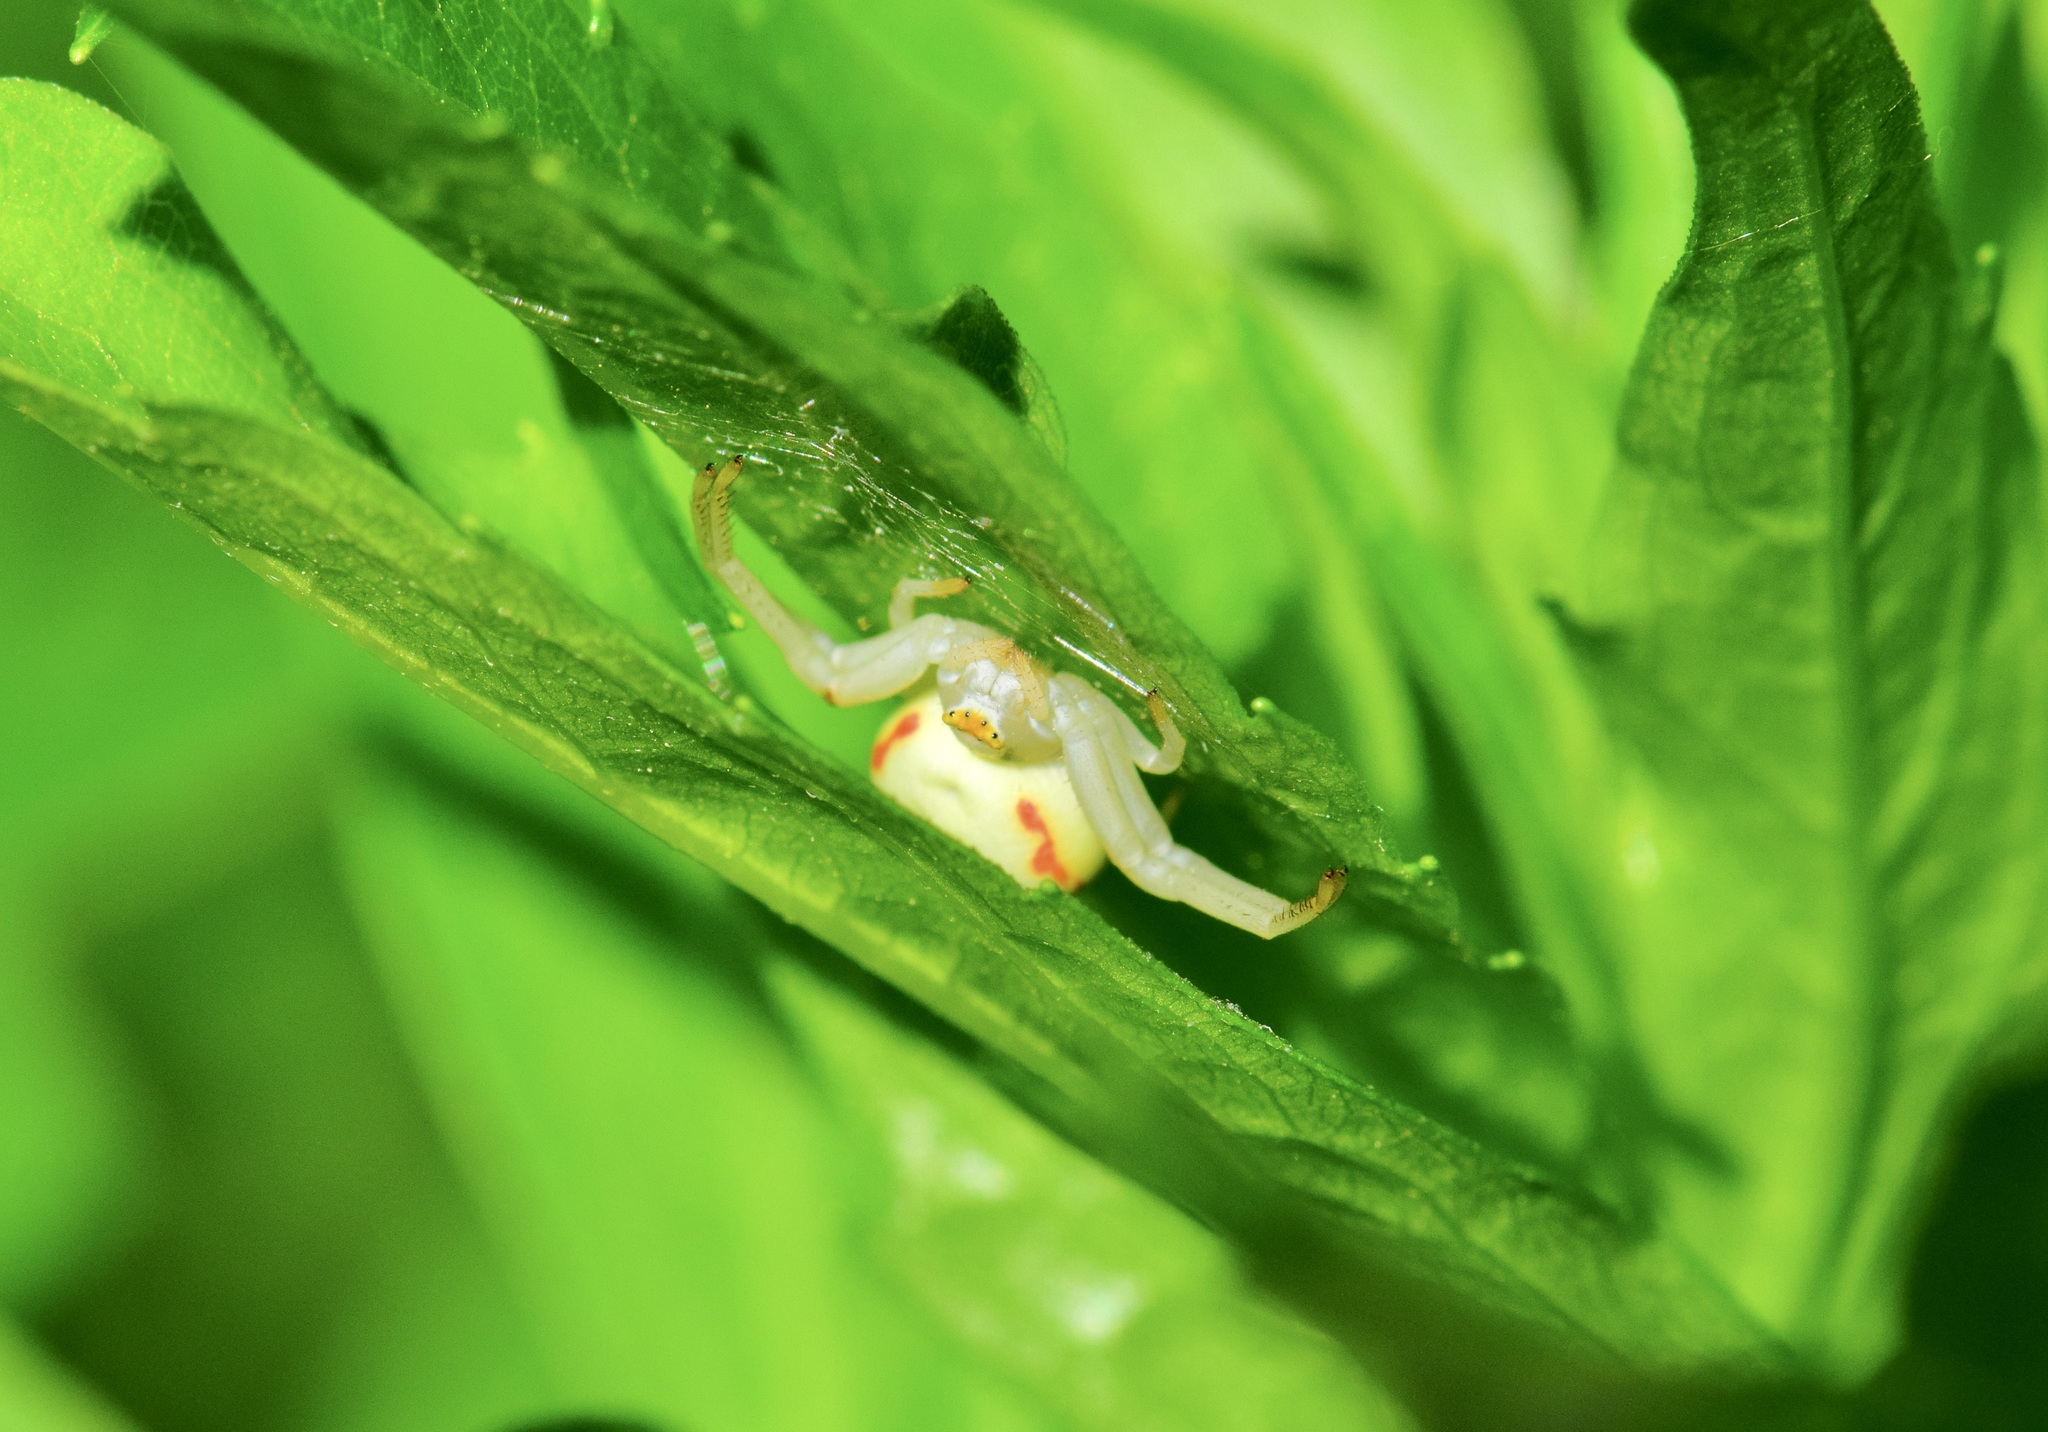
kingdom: Animalia
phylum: Arthropoda
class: Arachnida
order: Araneae
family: Thomisidae
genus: Misumena
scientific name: Misumena vatia
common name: Goldenrod crab spider
